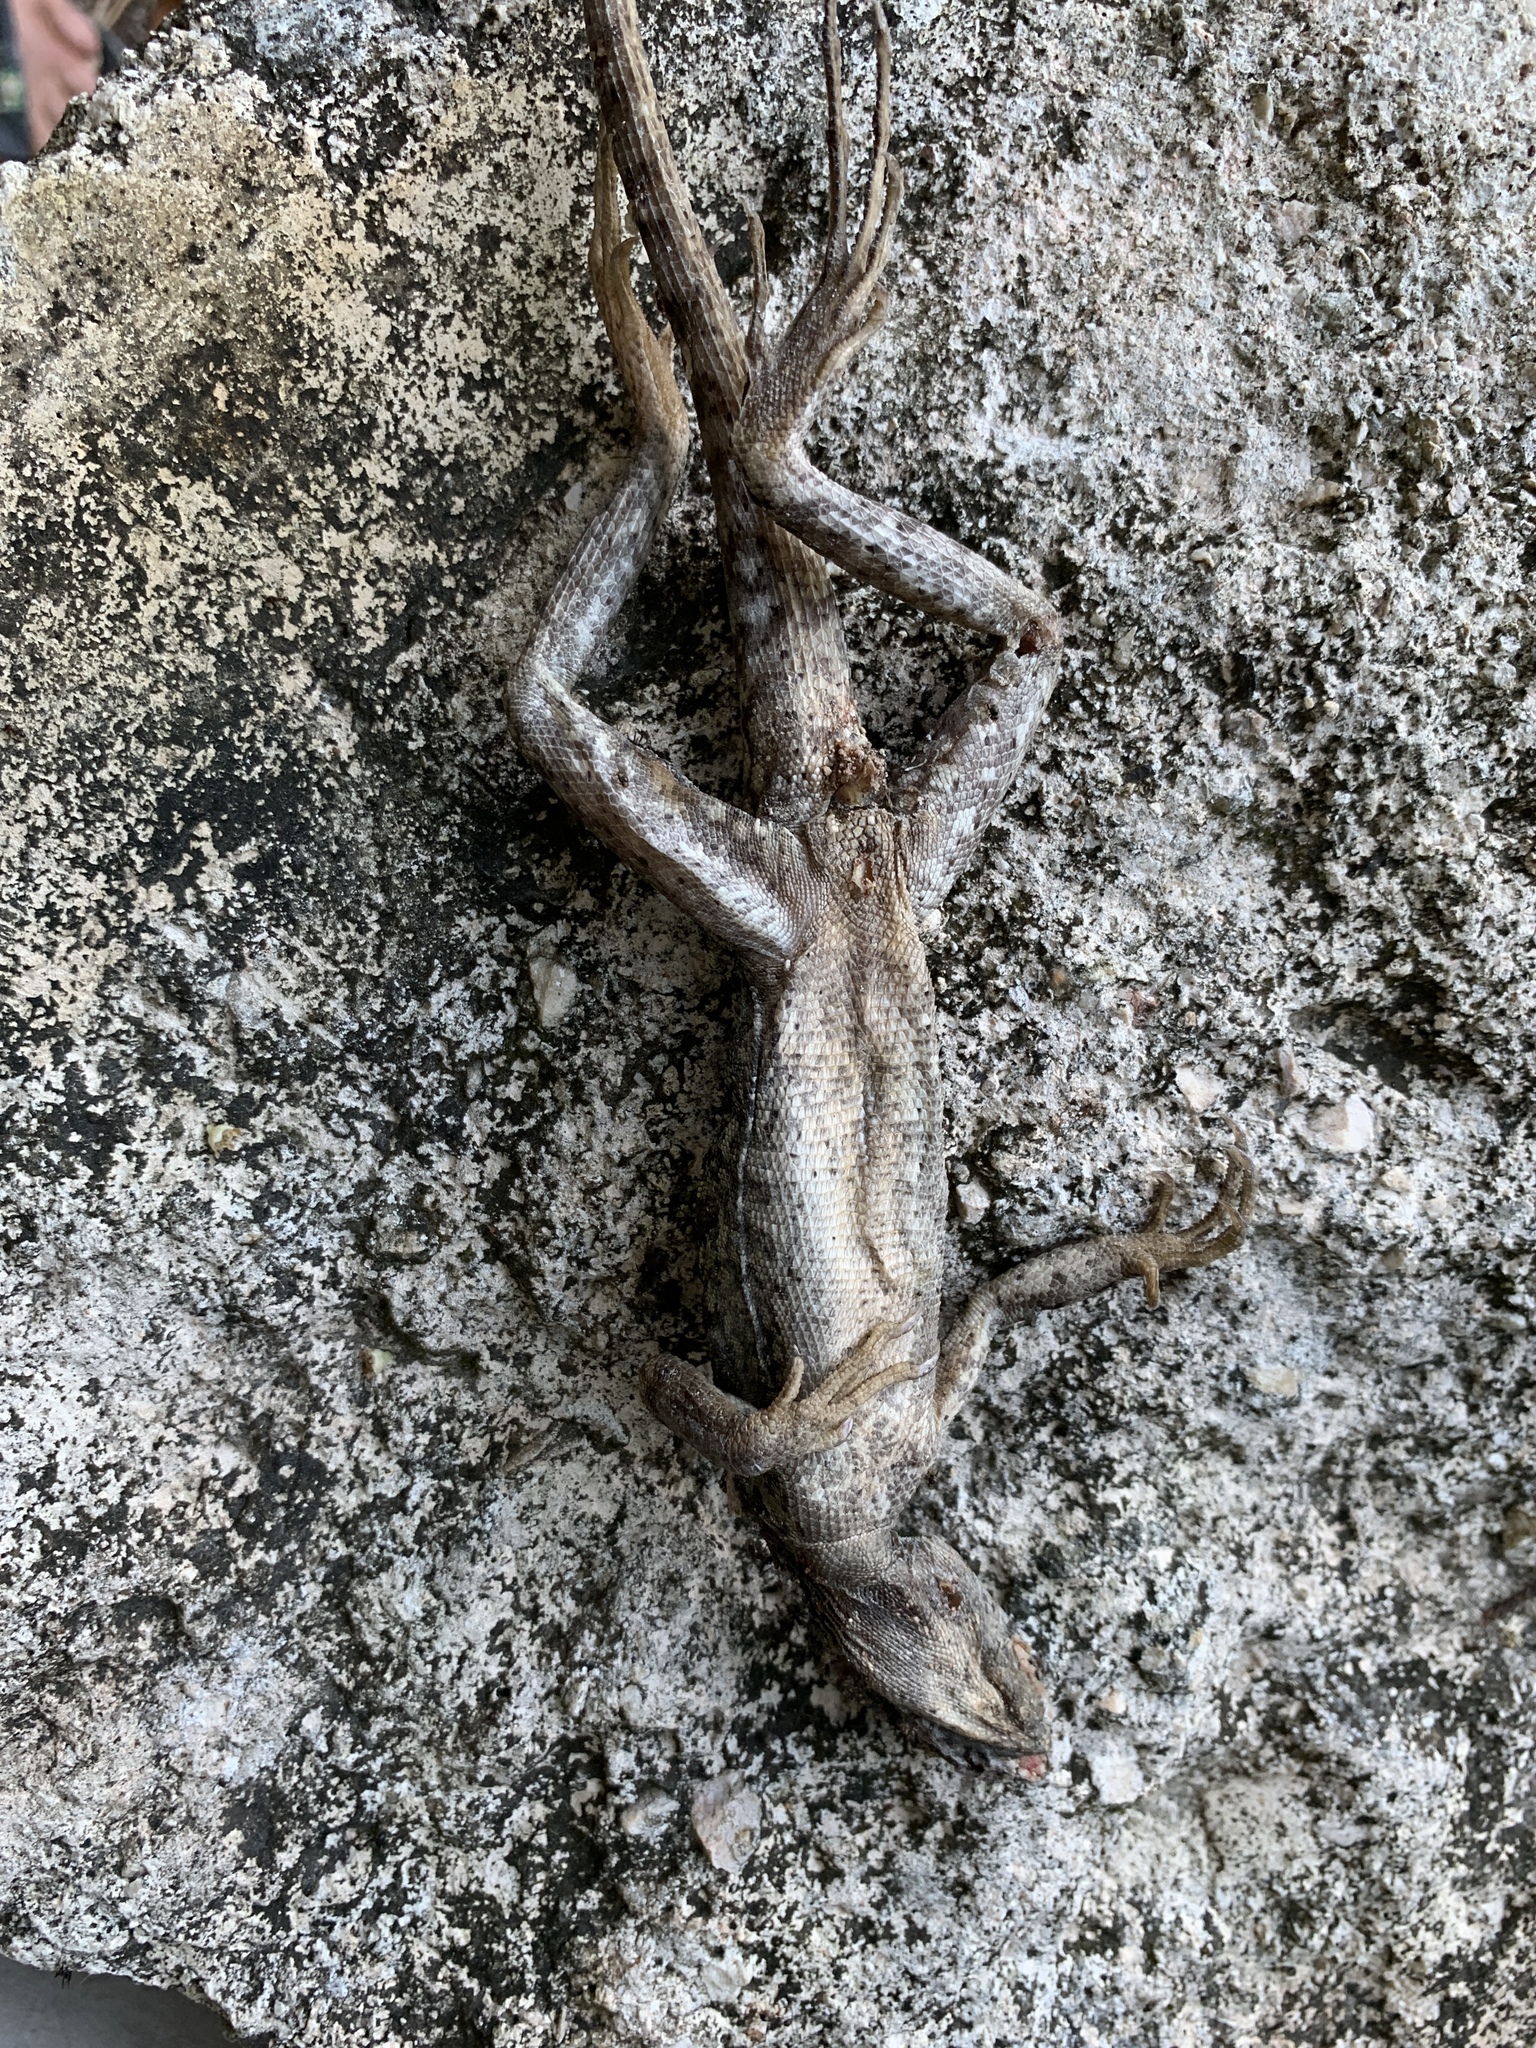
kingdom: Animalia
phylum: Chordata
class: Squamata
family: Corytophanidae
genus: Basiliscus
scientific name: Basiliscus vittatus
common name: Brown basilisk
